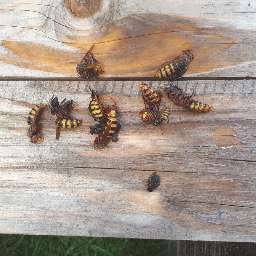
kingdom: Animalia
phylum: Arthropoda
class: Insecta
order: Hymenoptera
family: Vespidae
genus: Vespa
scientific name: Vespa crabro
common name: Hornet
